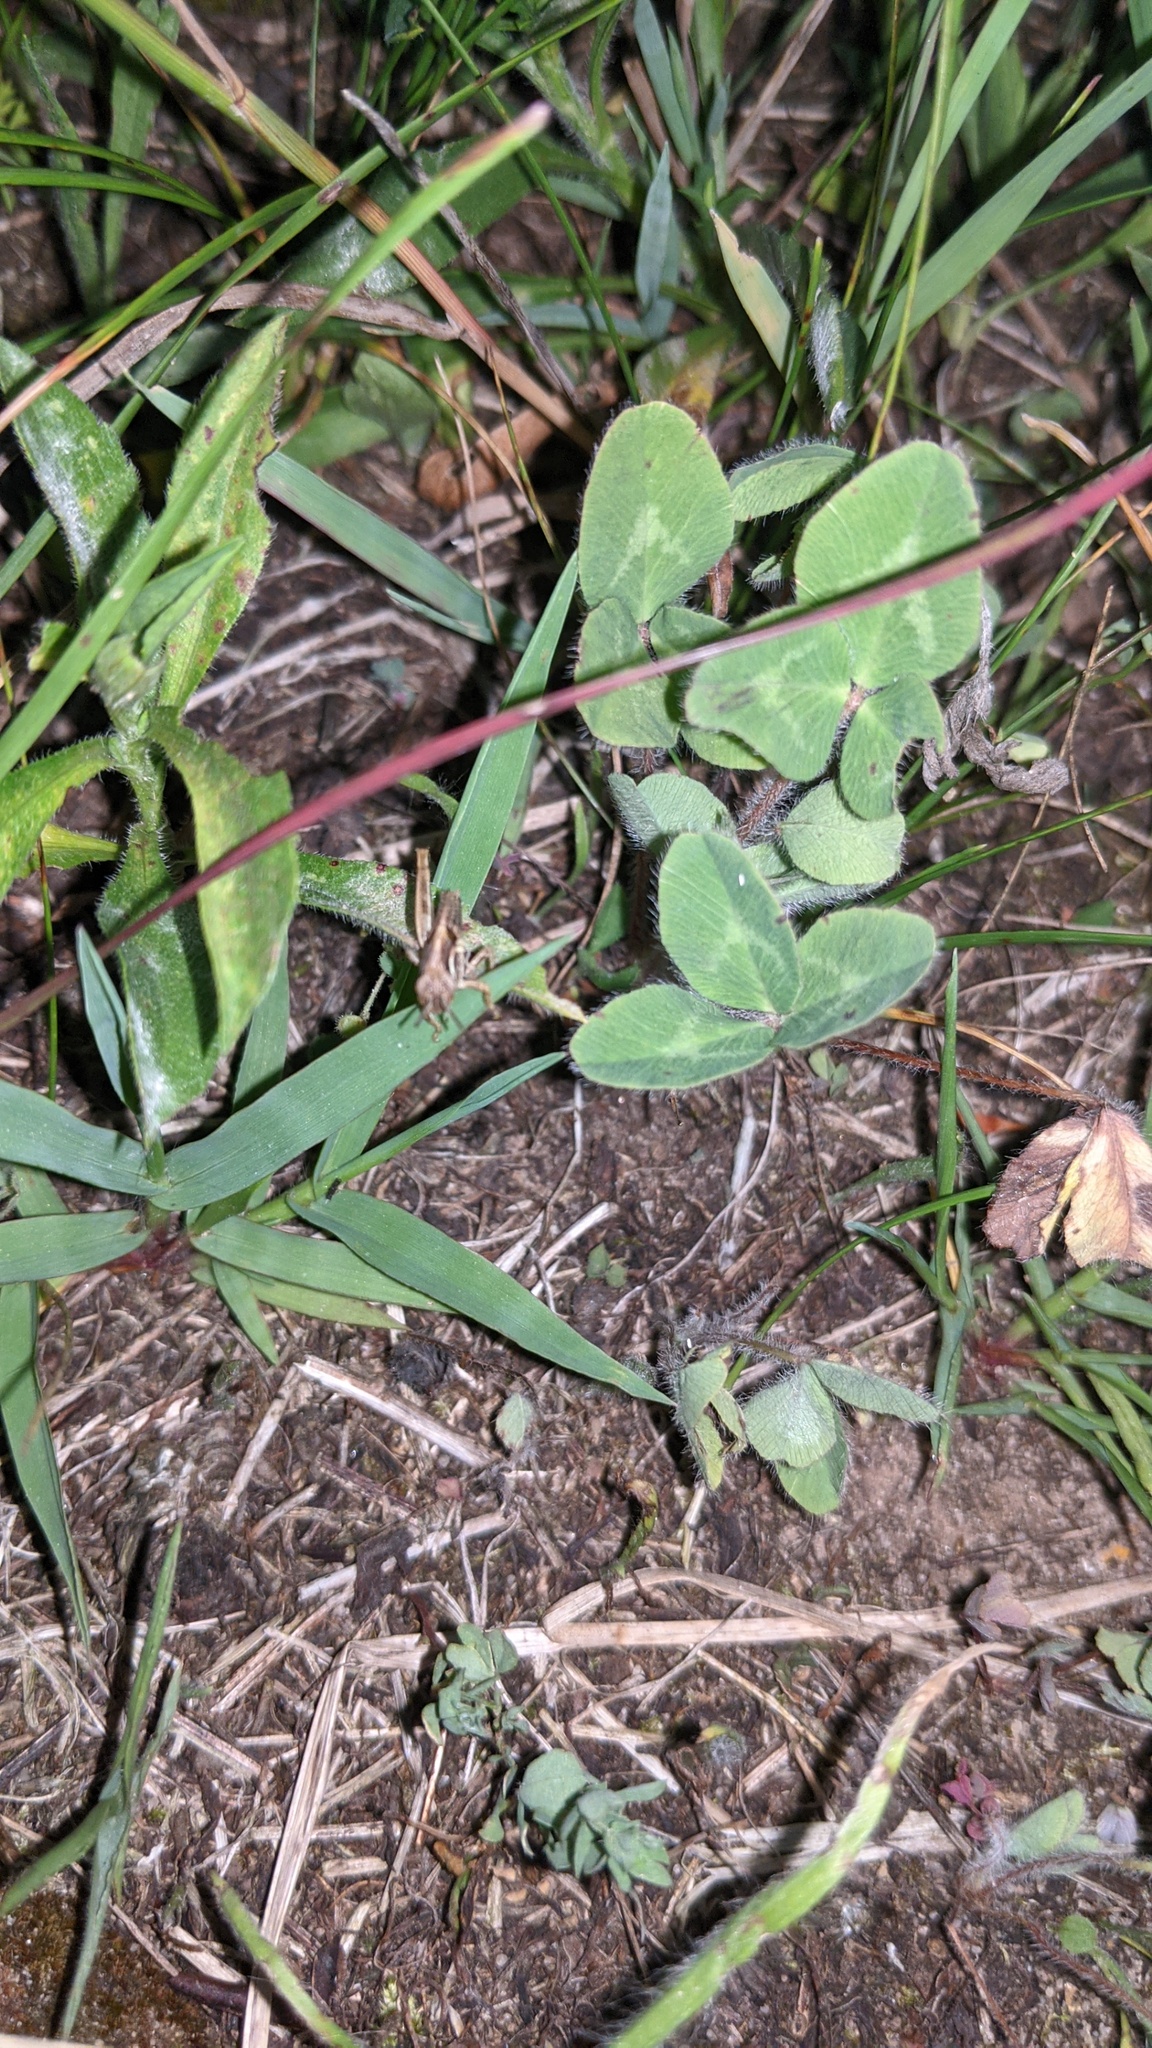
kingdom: Plantae
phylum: Tracheophyta
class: Magnoliopsida
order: Fabales
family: Fabaceae
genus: Trifolium
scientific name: Trifolium pratense
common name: Red clover
